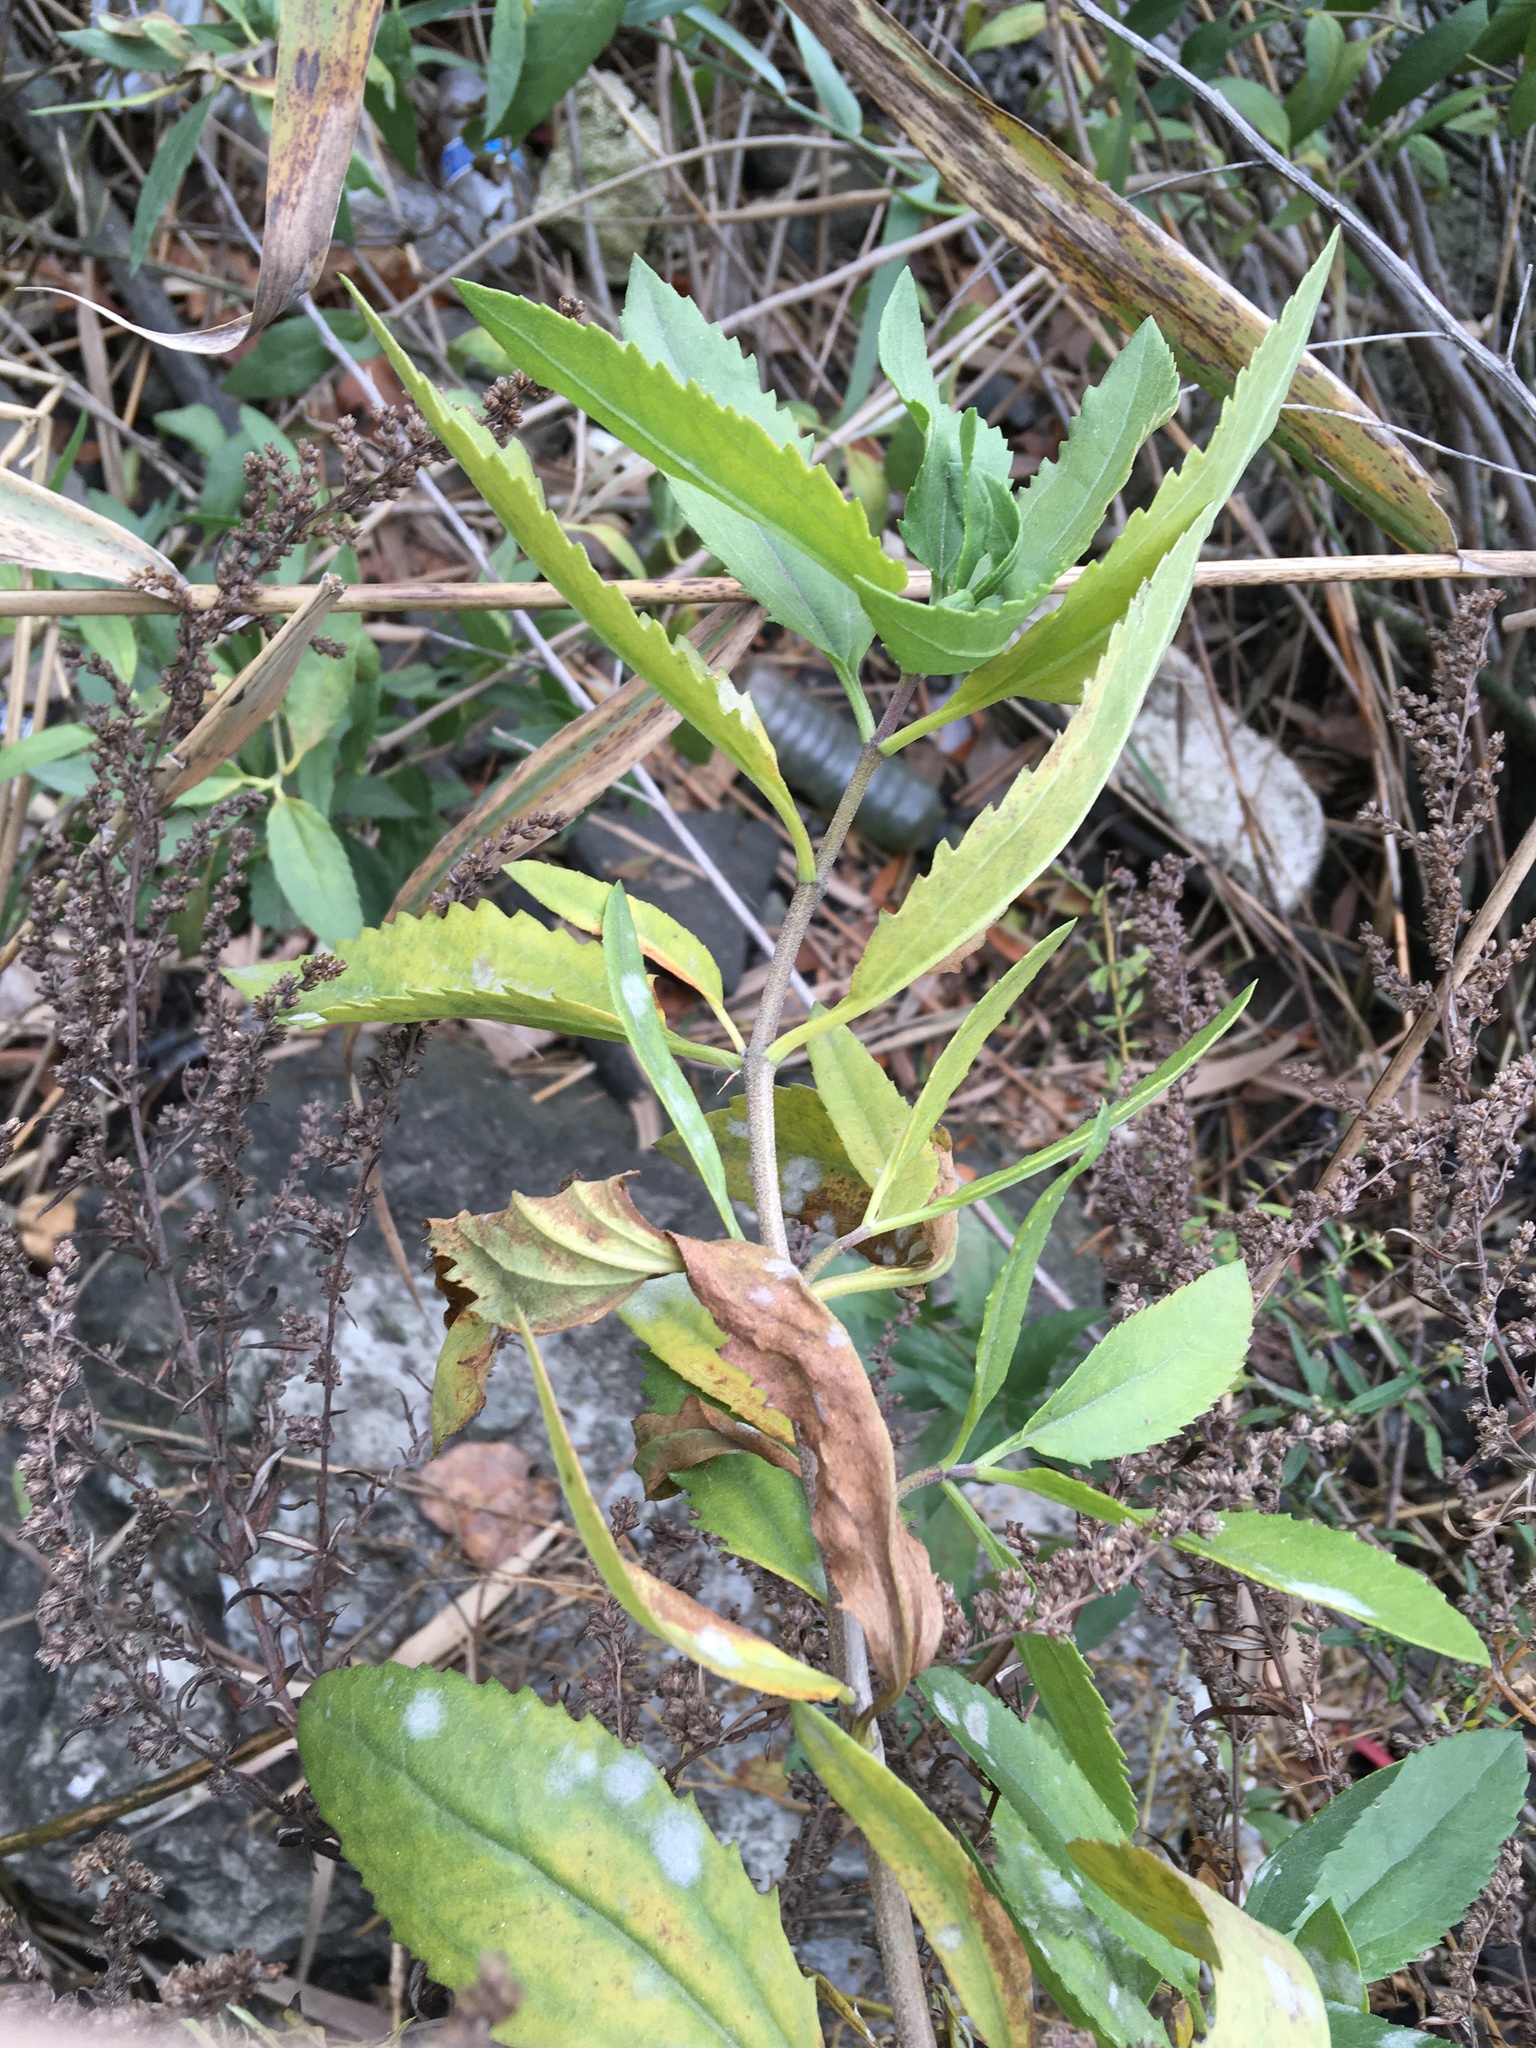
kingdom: Plantae
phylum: Tracheophyta
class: Magnoliopsida
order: Asterales
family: Asteraceae
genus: Iva
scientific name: Iva frutescens
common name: Big-leaved marsh-elder
